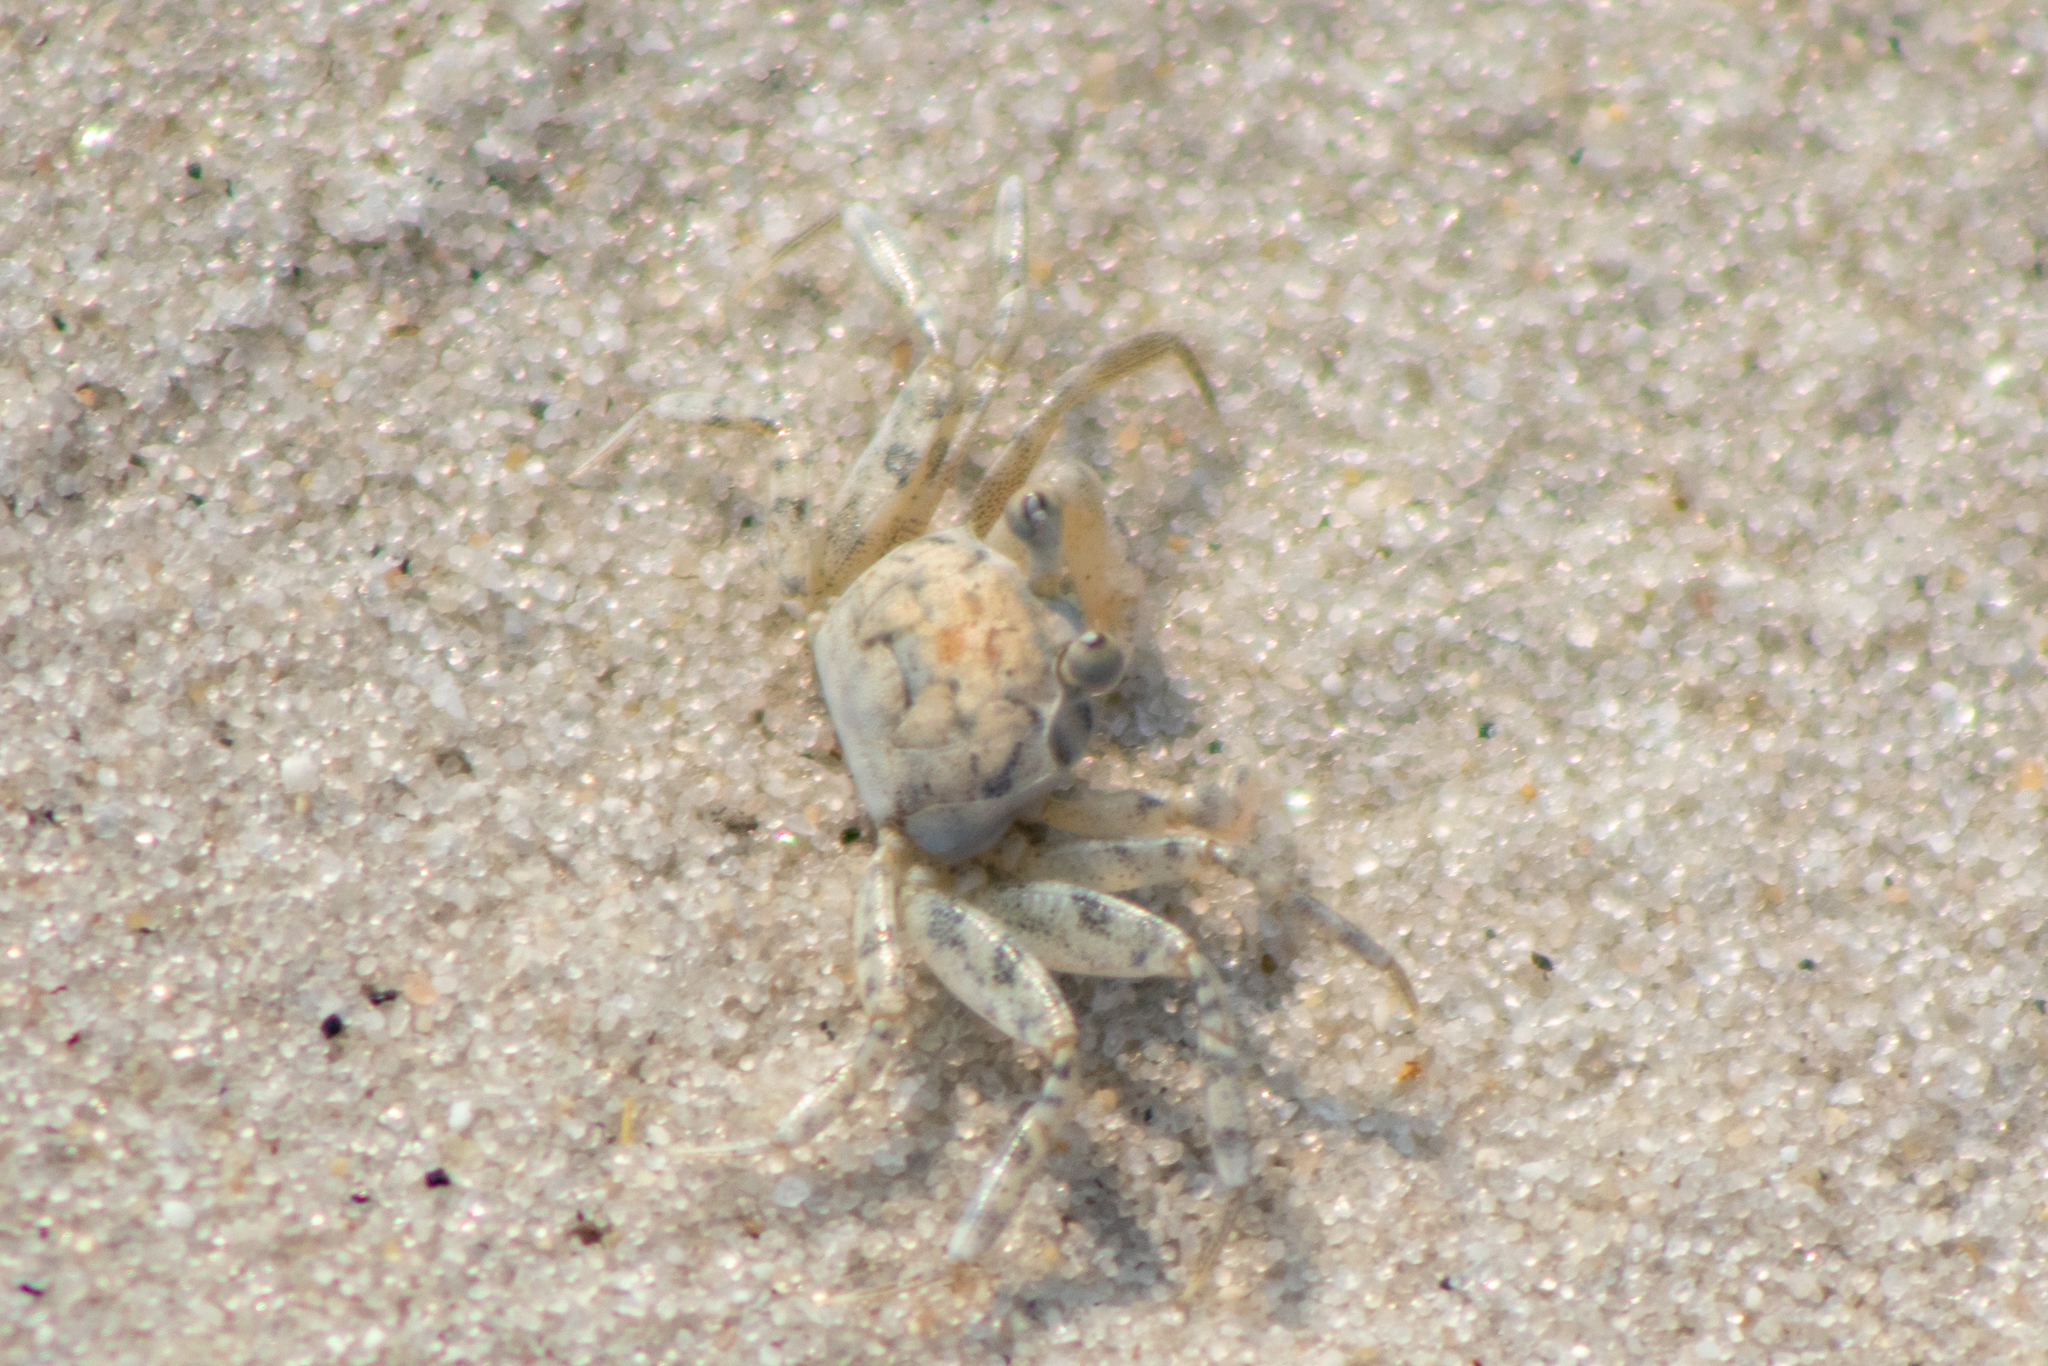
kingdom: Animalia
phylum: Arthropoda
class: Malacostraca
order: Decapoda
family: Ocypodidae
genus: Ocypode
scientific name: Ocypode quadrata
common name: Ghost crab
